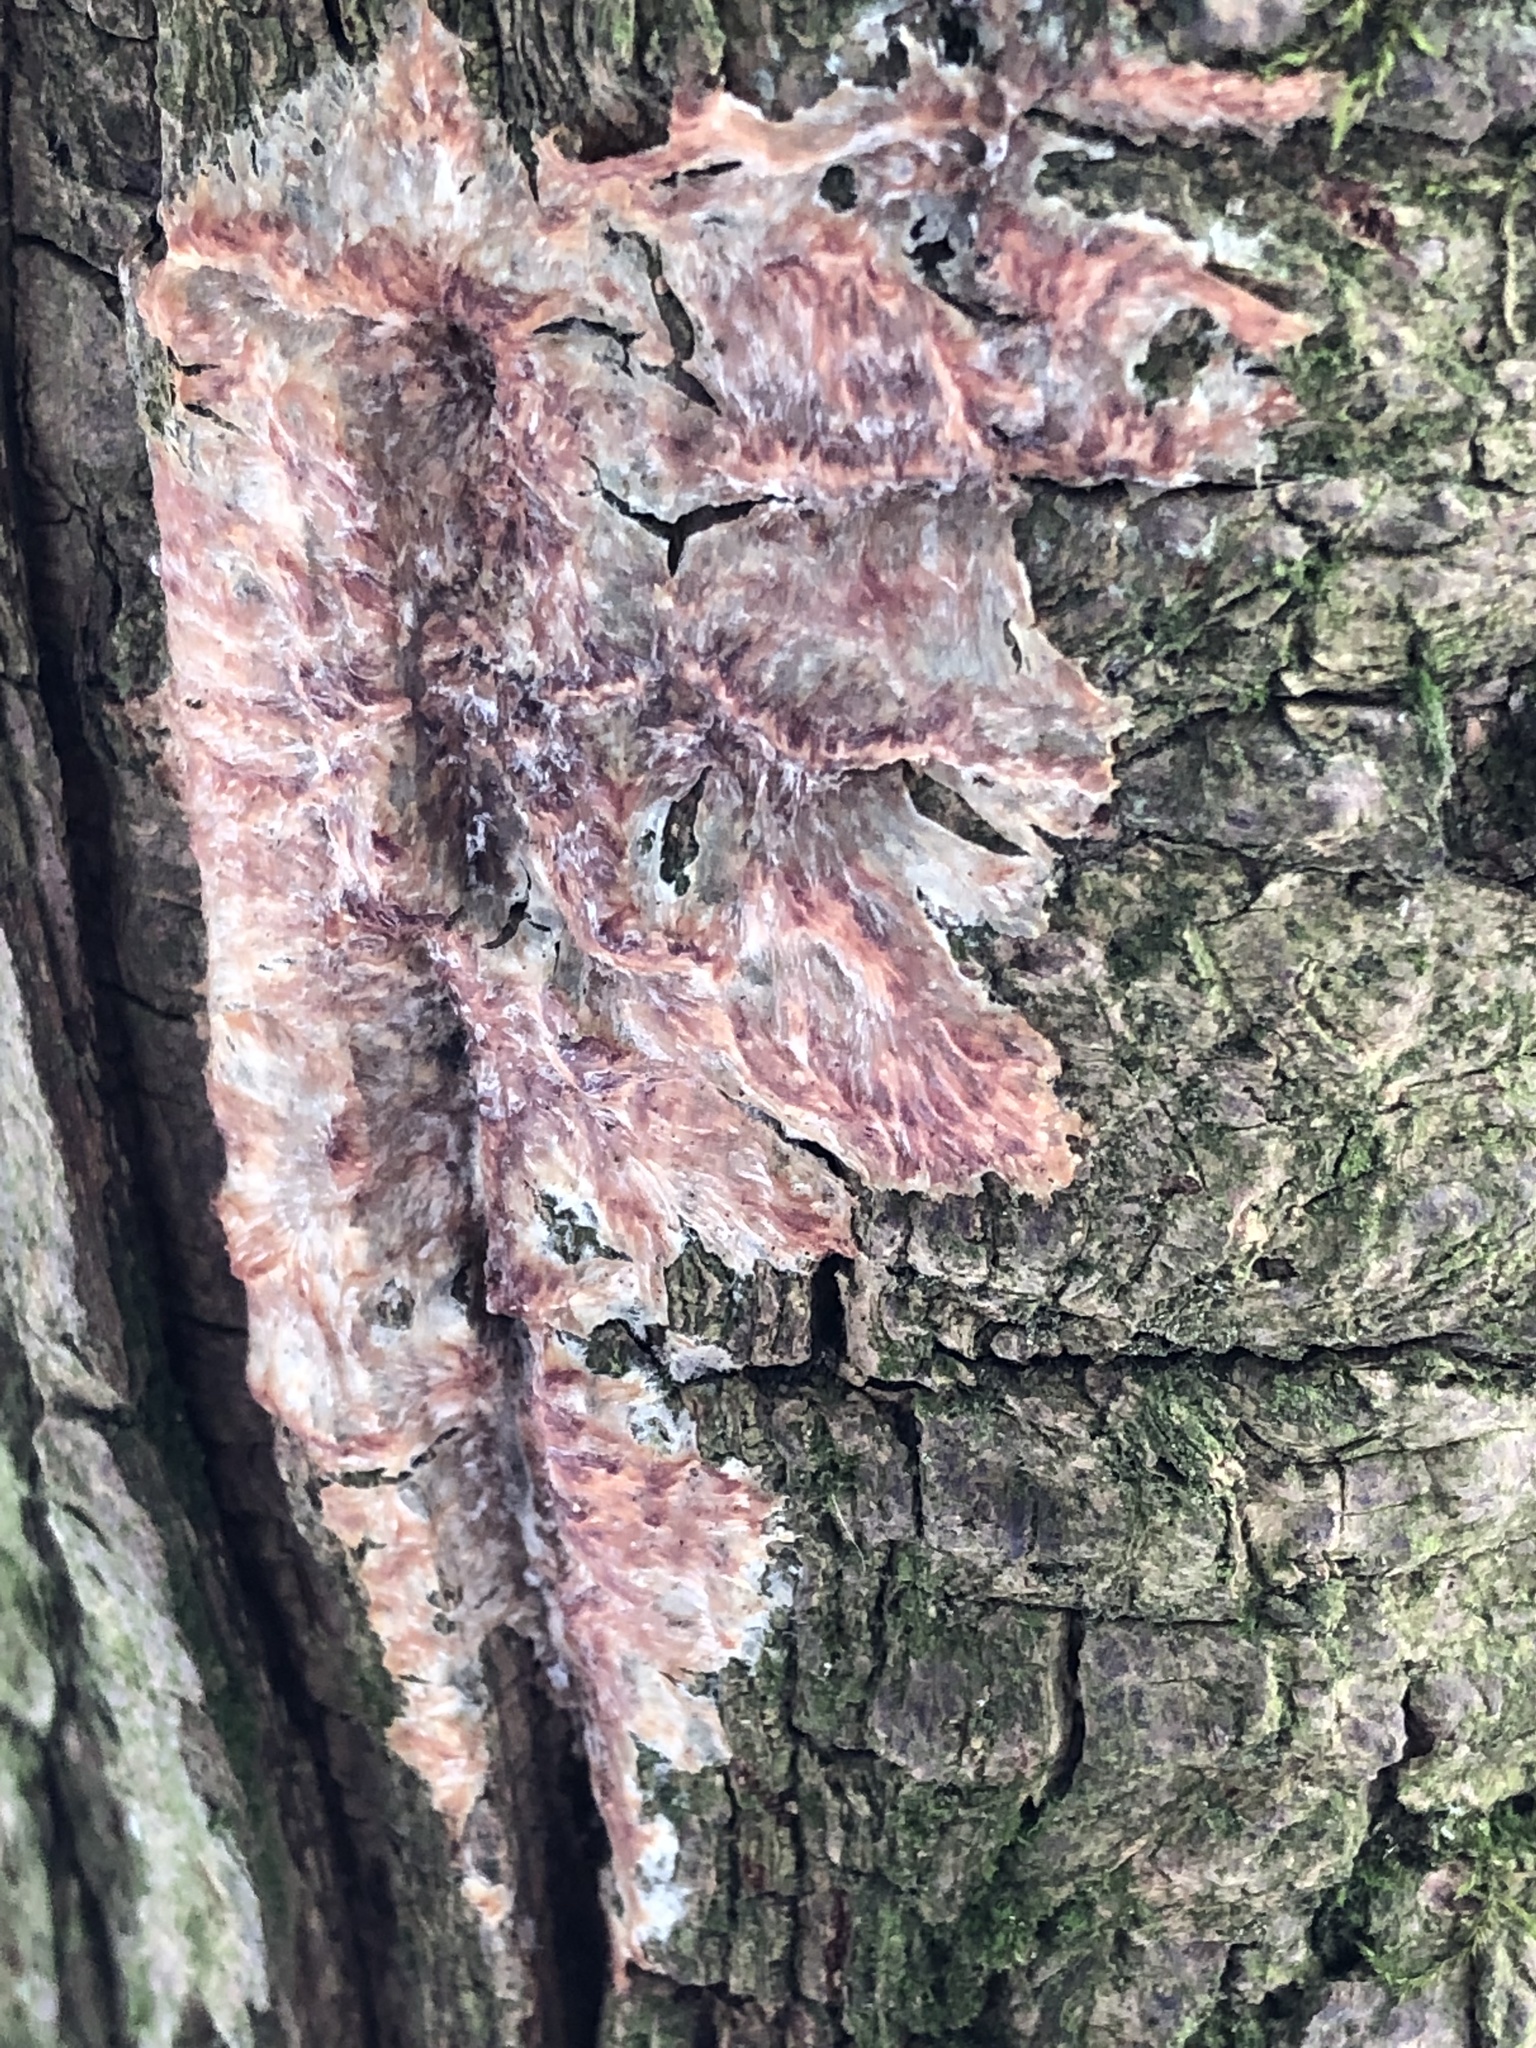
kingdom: Fungi
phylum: Basidiomycota
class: Agaricomycetes
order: Polyporales
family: Meruliaceae
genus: Phlebia
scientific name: Phlebia radiata
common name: Wrinkled crust
